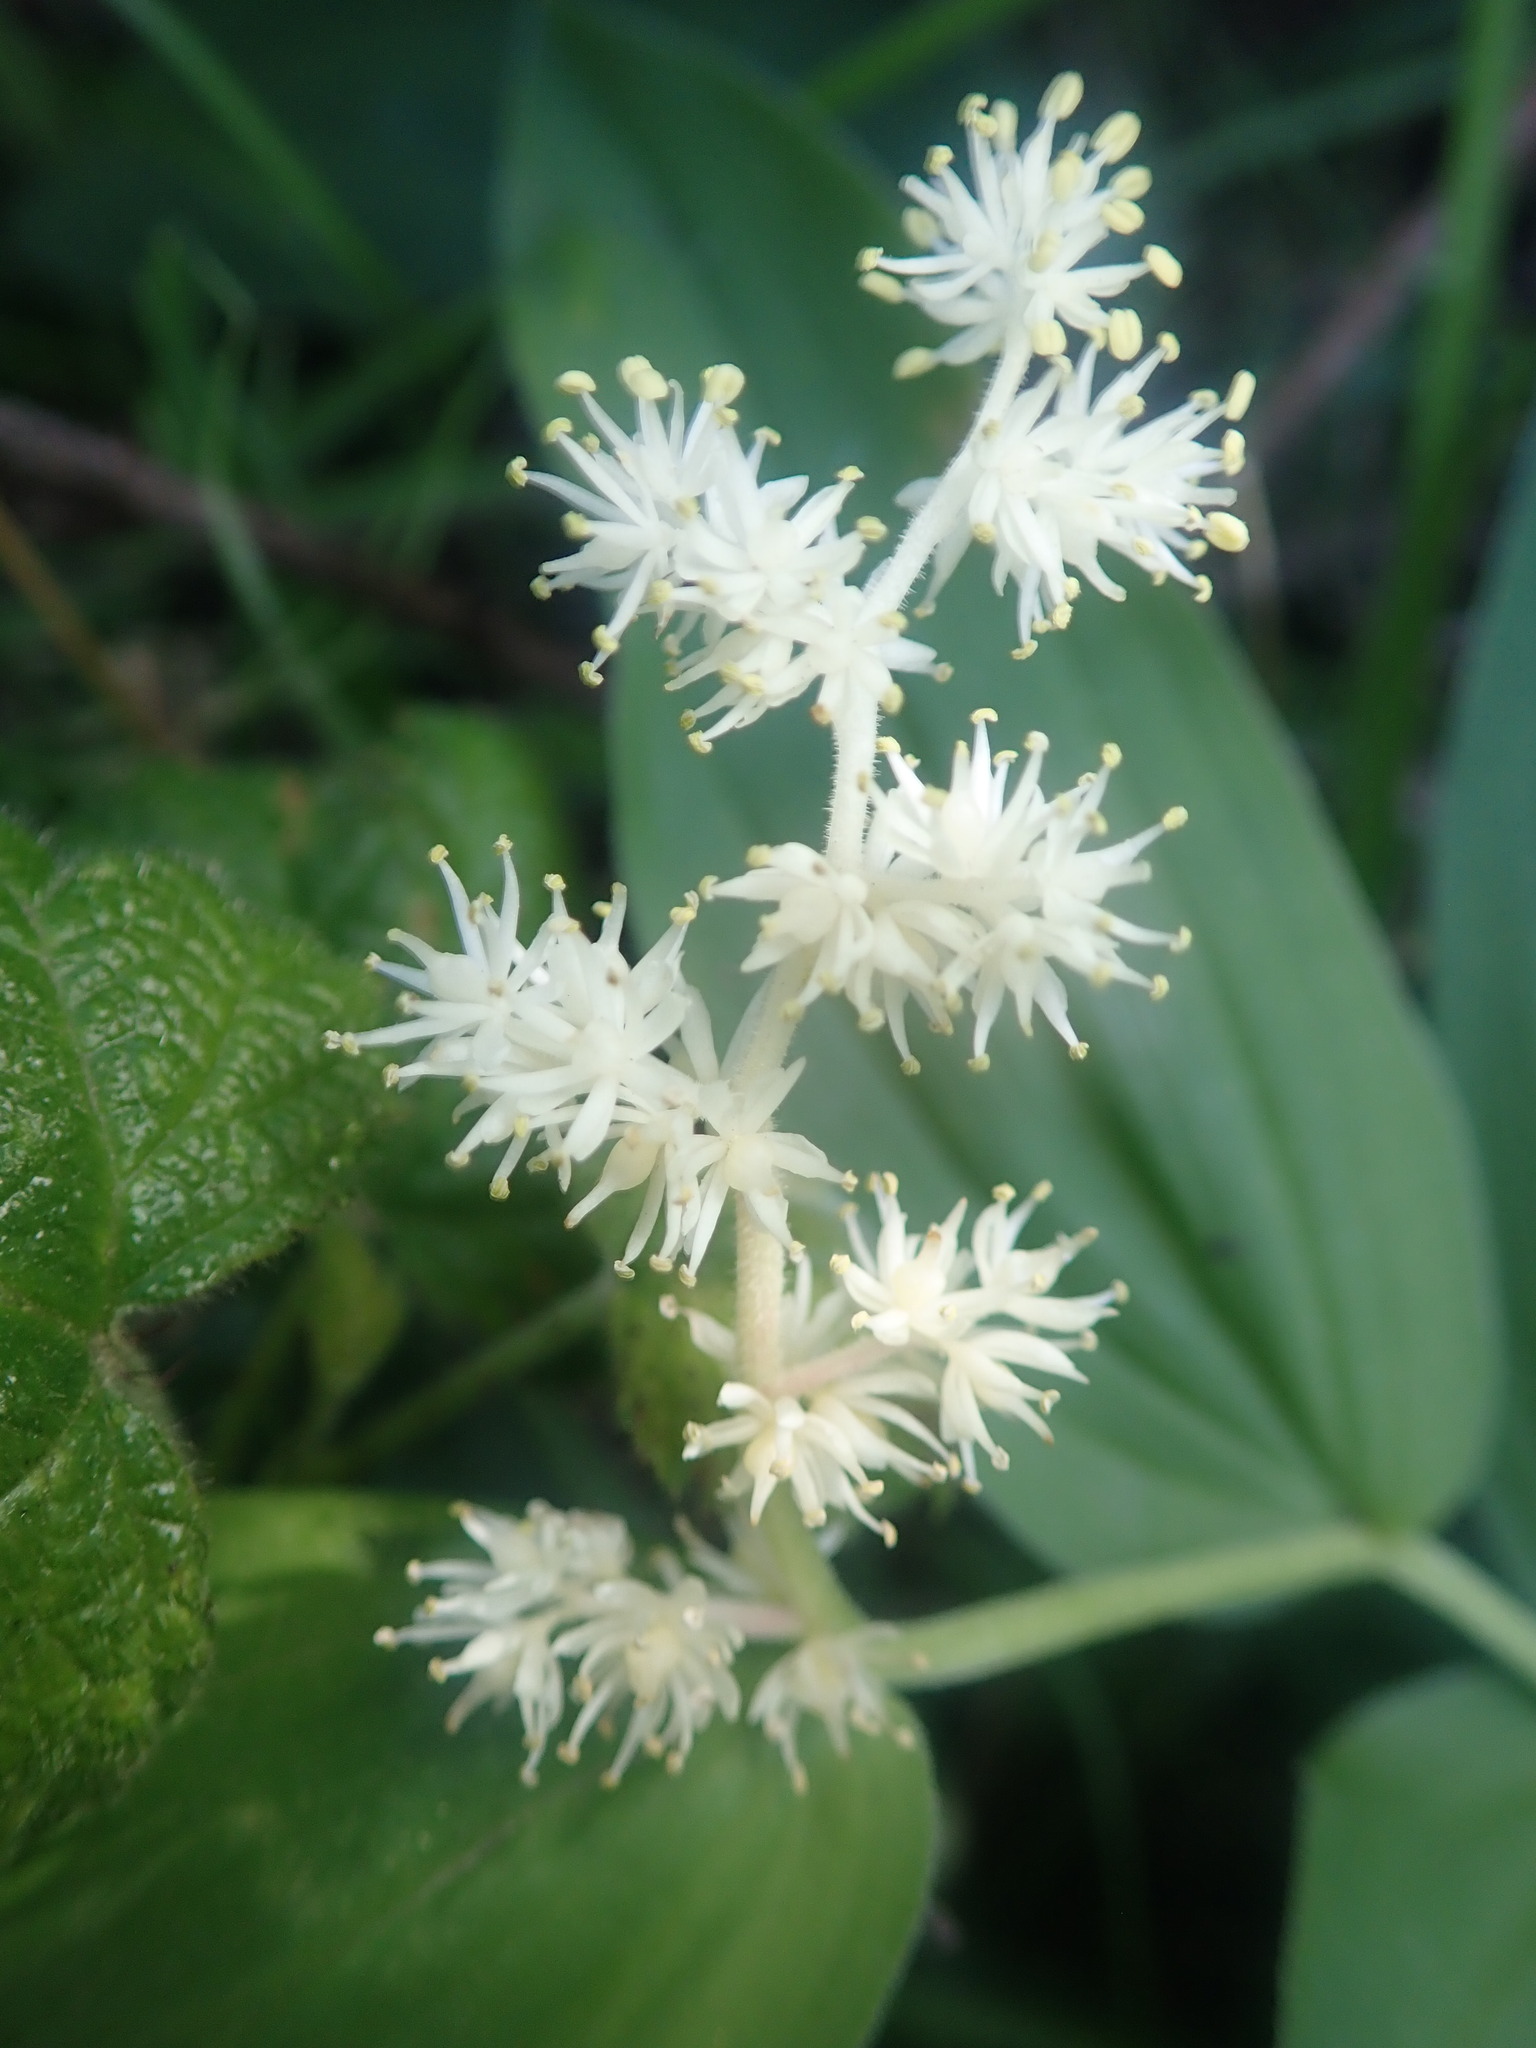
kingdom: Plantae
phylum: Tracheophyta
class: Liliopsida
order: Asparagales
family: Asparagaceae
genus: Maianthemum
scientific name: Maianthemum racemosum
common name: False spikenard
